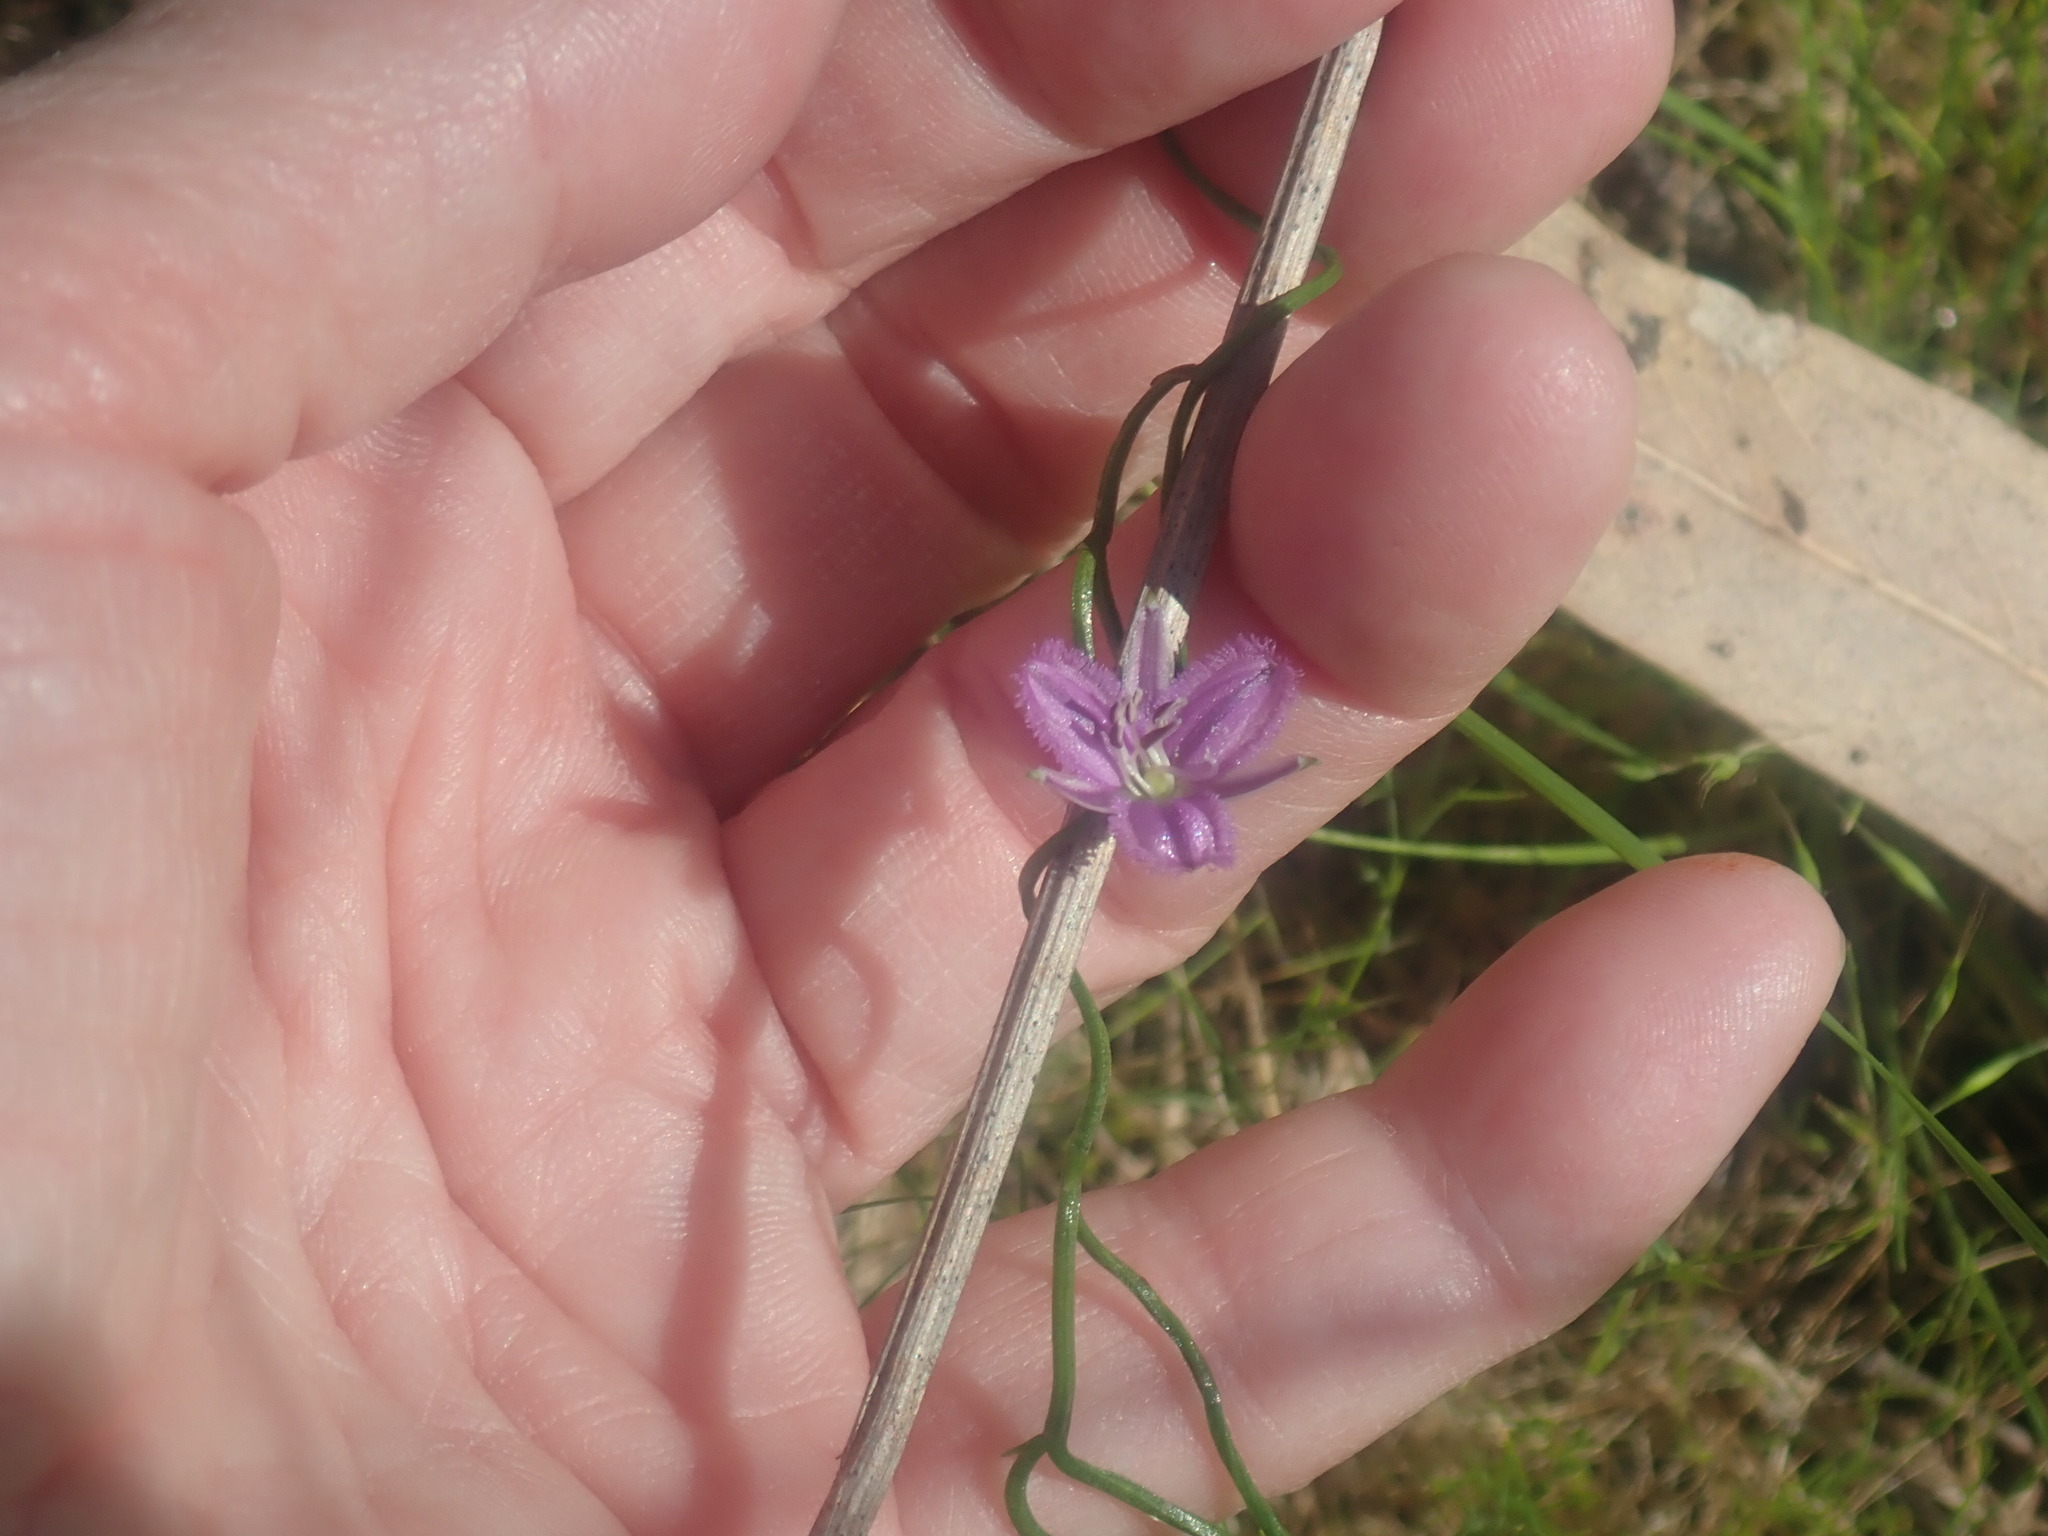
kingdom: Plantae
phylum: Tracheophyta
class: Liliopsida
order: Asparagales
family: Asparagaceae
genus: Thysanotus
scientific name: Thysanotus patersonii
